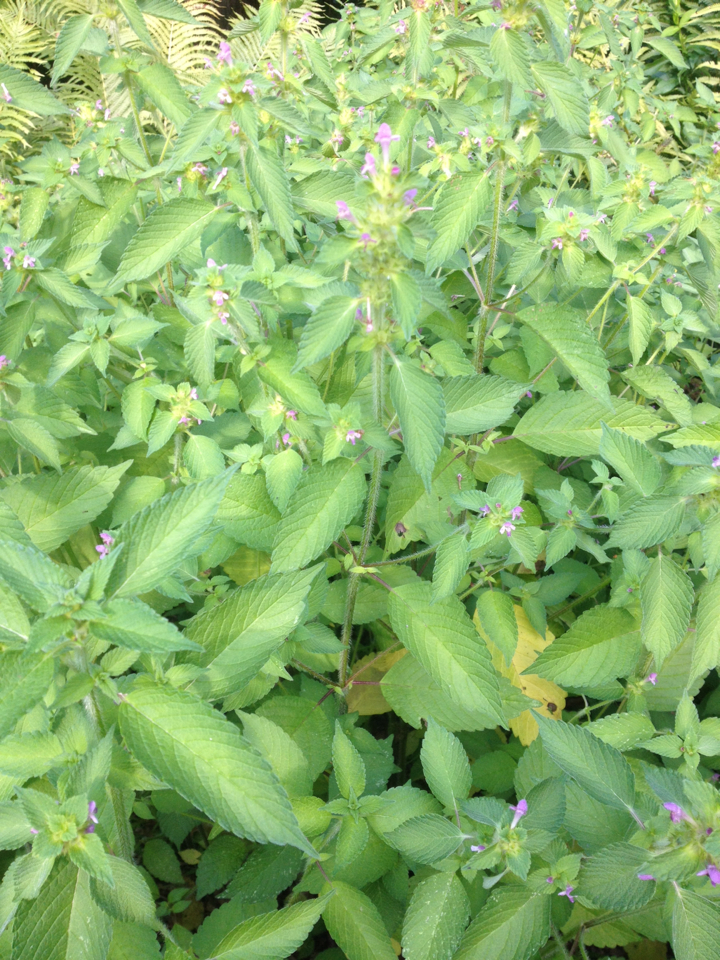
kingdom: Plantae
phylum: Tracheophyta
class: Magnoliopsida
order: Lamiales
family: Lamiaceae
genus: Galeopsis
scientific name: Galeopsis bifida
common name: Bifid hemp-nettle
